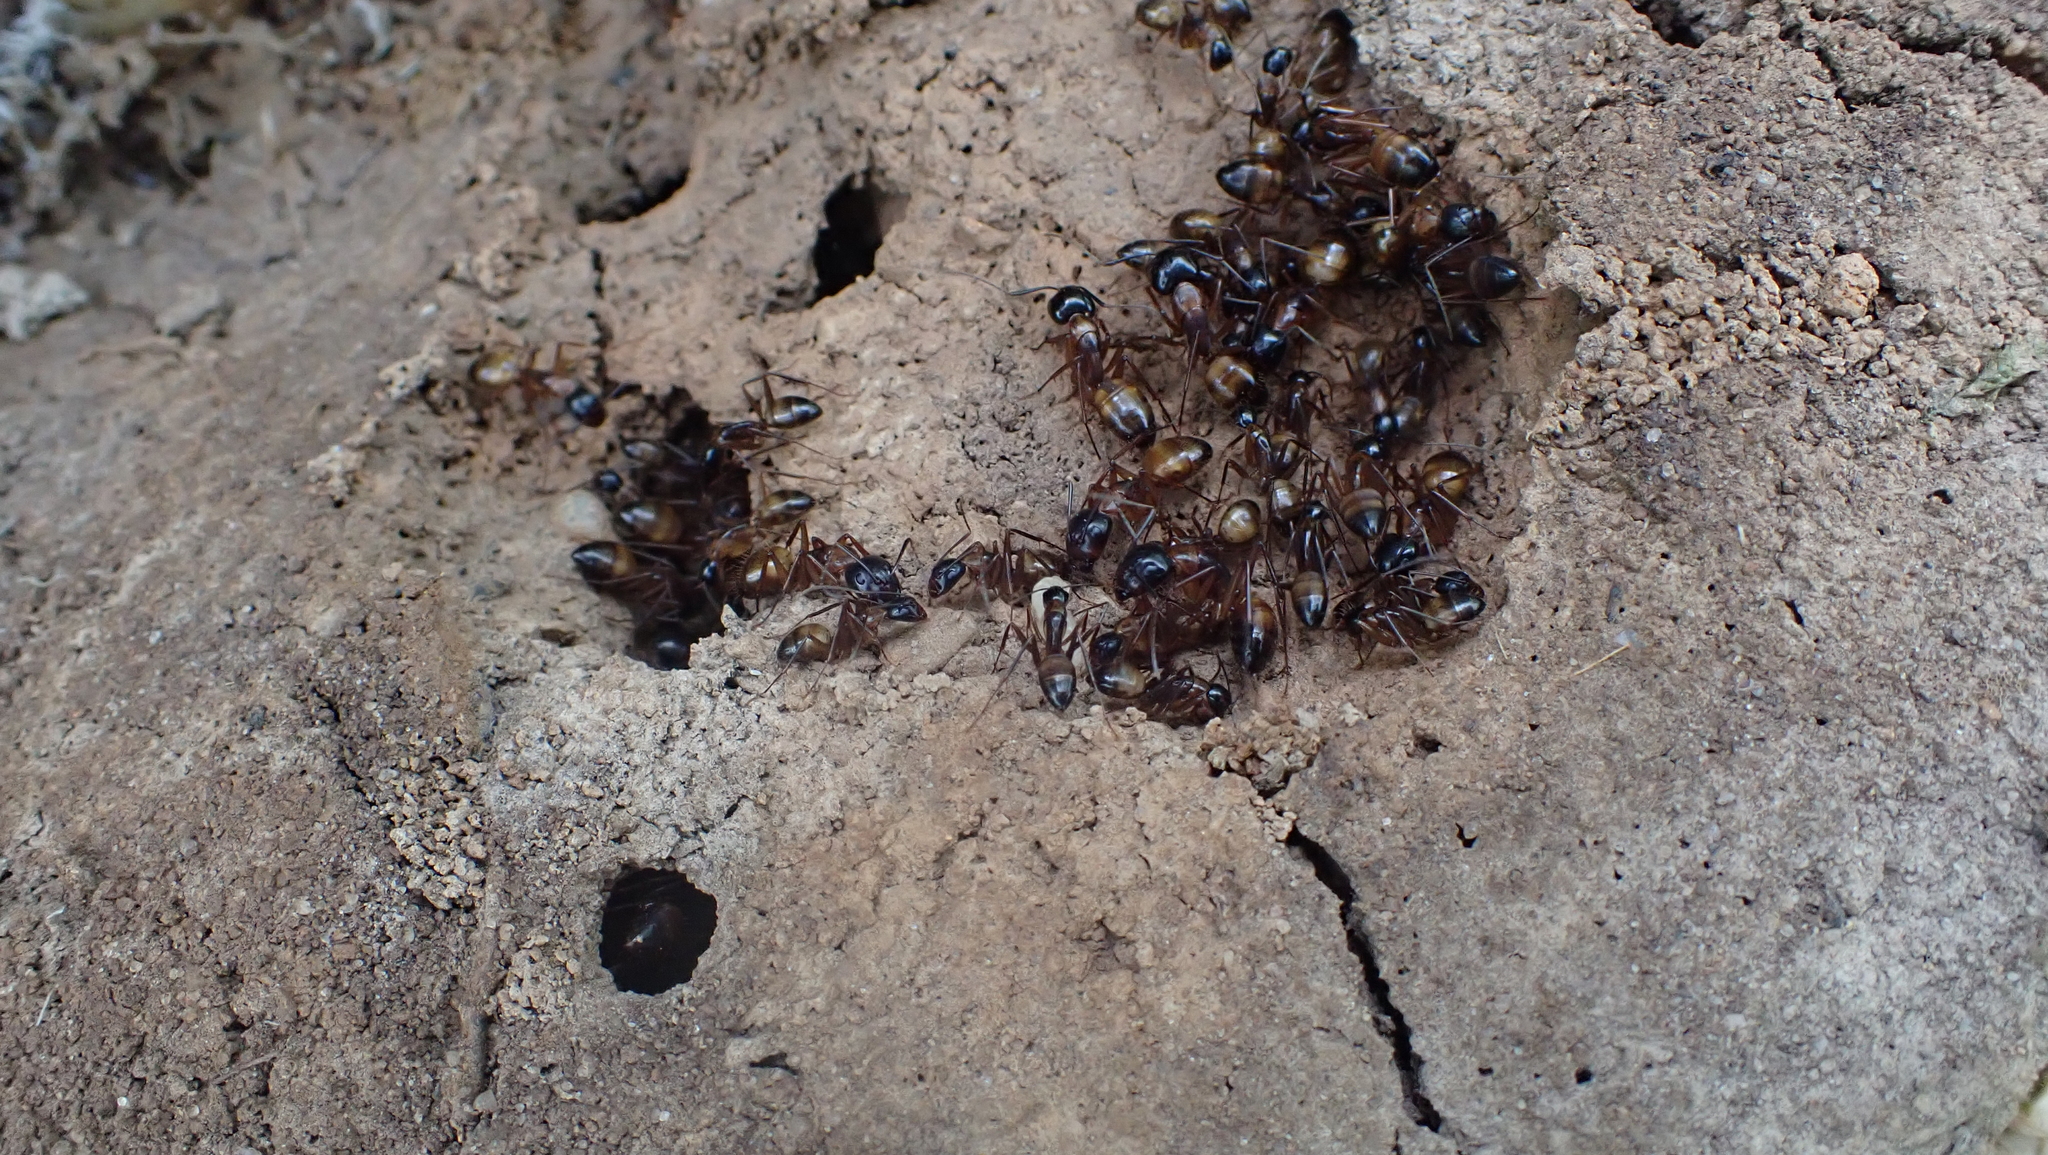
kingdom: Animalia
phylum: Arthropoda
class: Insecta
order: Hymenoptera
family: Formicidae
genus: Camponotus
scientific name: Camponotus americanus
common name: American carpenter ant
